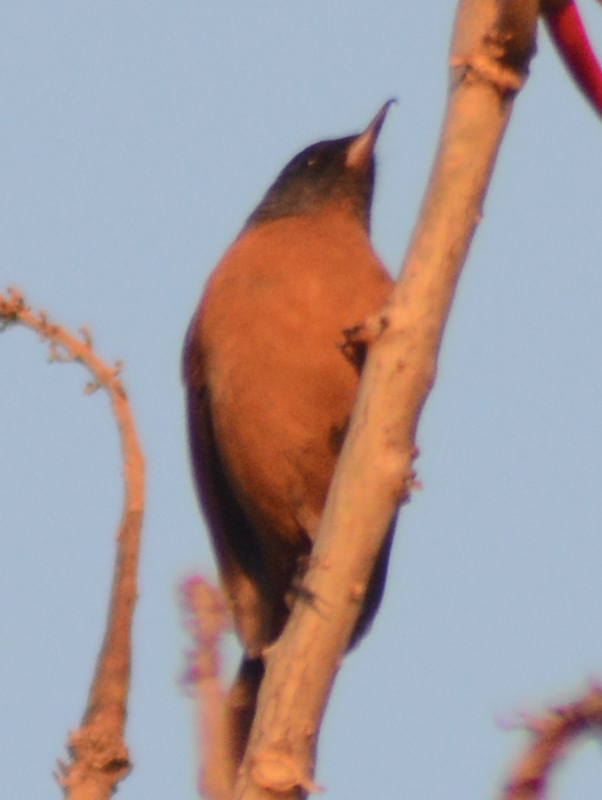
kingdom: Animalia
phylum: Chordata
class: Aves
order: Passeriformes
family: Thraupidae
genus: Diglossa
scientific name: Diglossa baritula
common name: Cinnamon-bellied flowerpiercer
